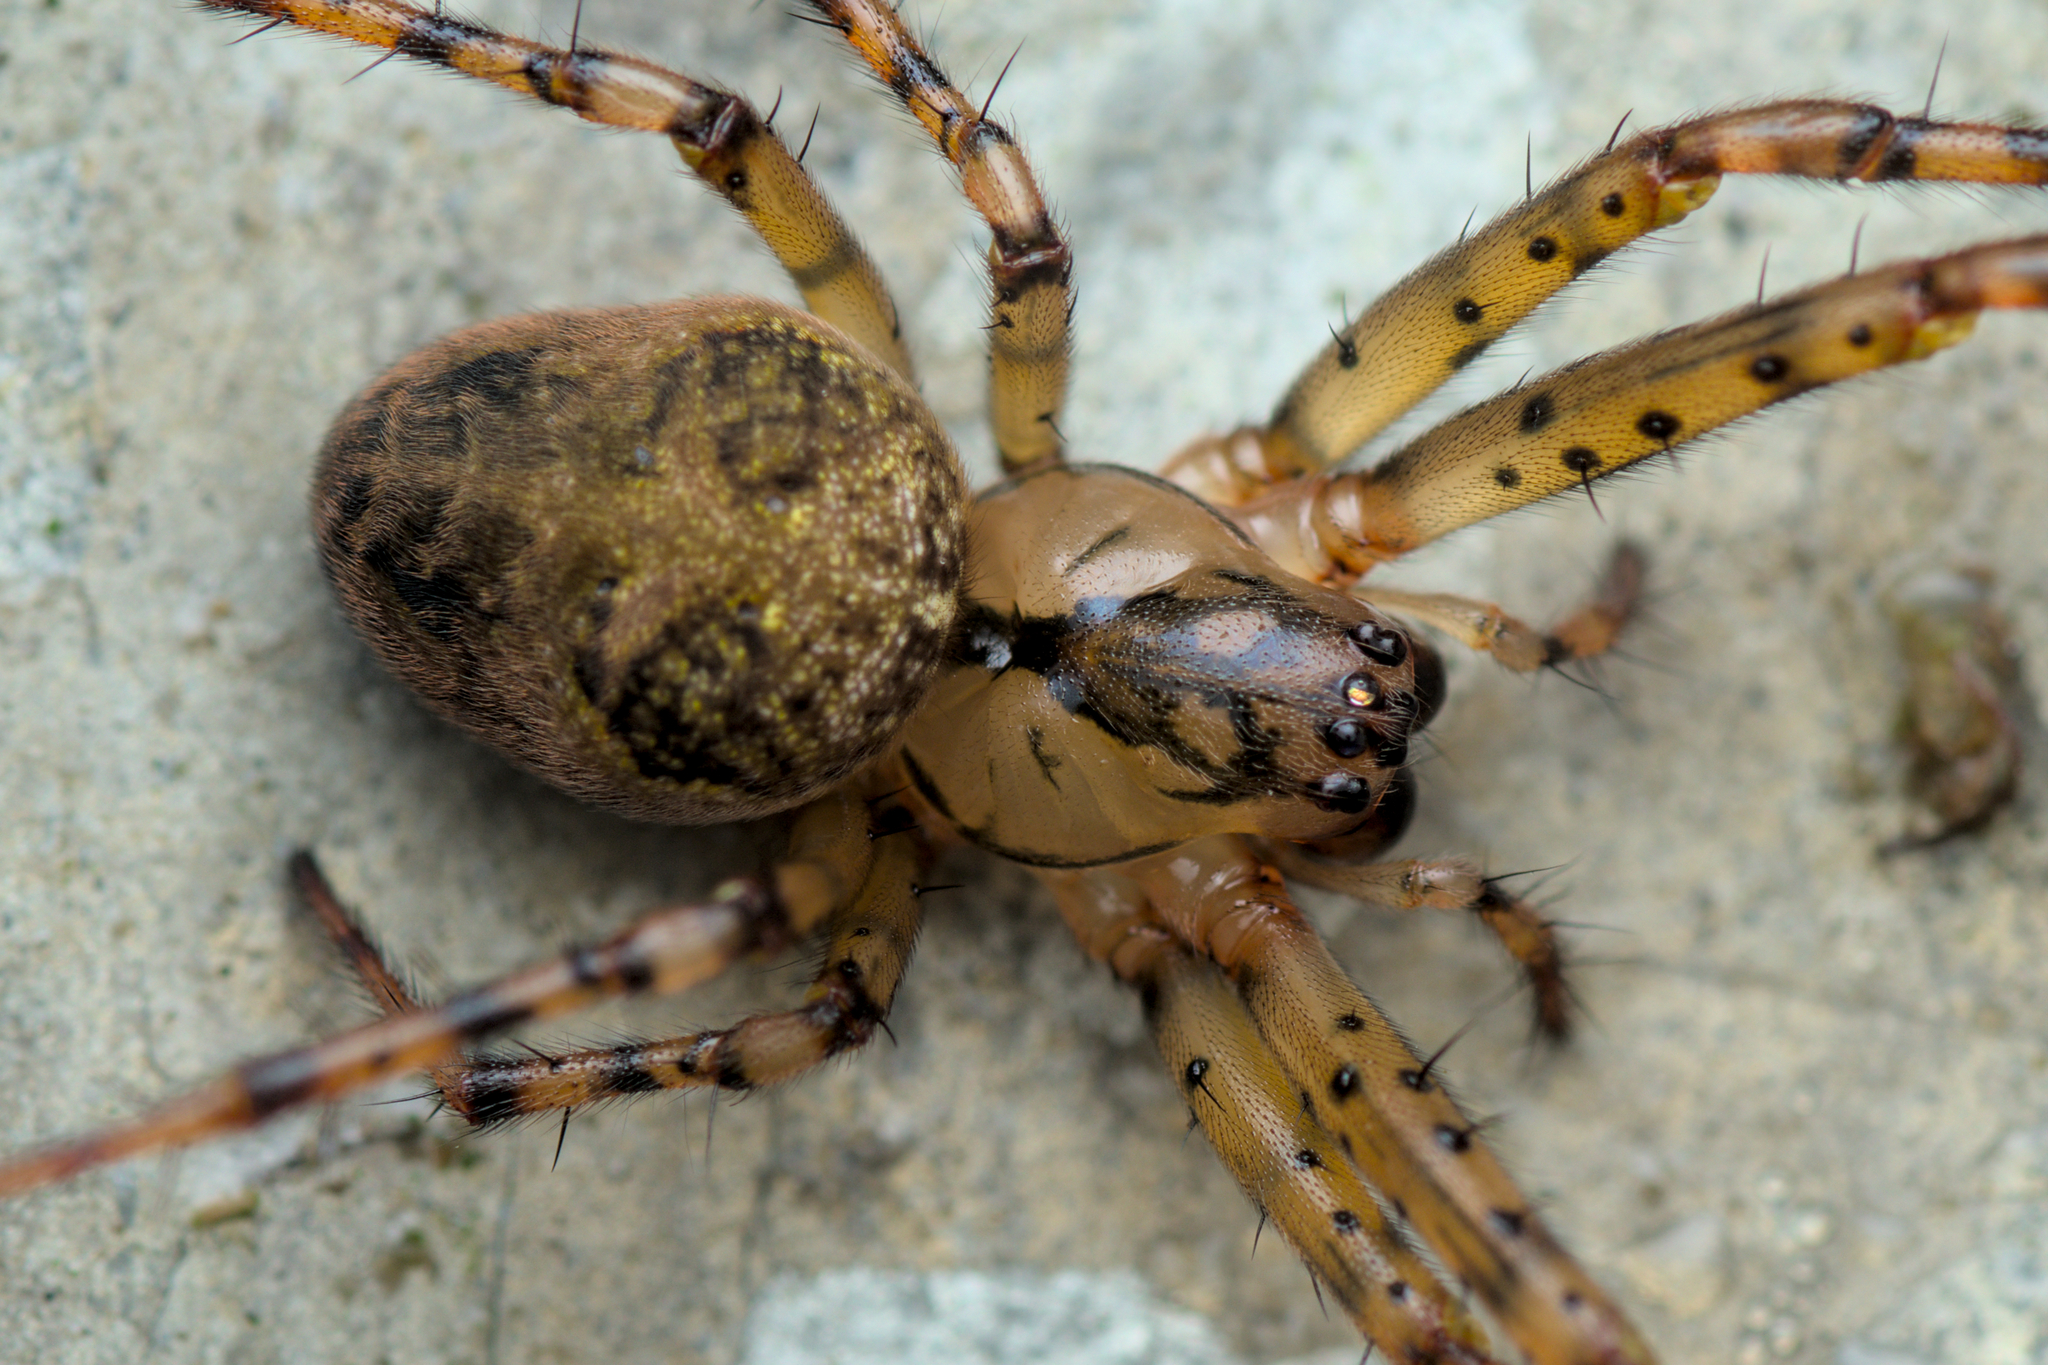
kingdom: Animalia
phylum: Arthropoda
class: Arachnida
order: Araneae
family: Tetragnathidae
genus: Metellina
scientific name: Metellina merianae
